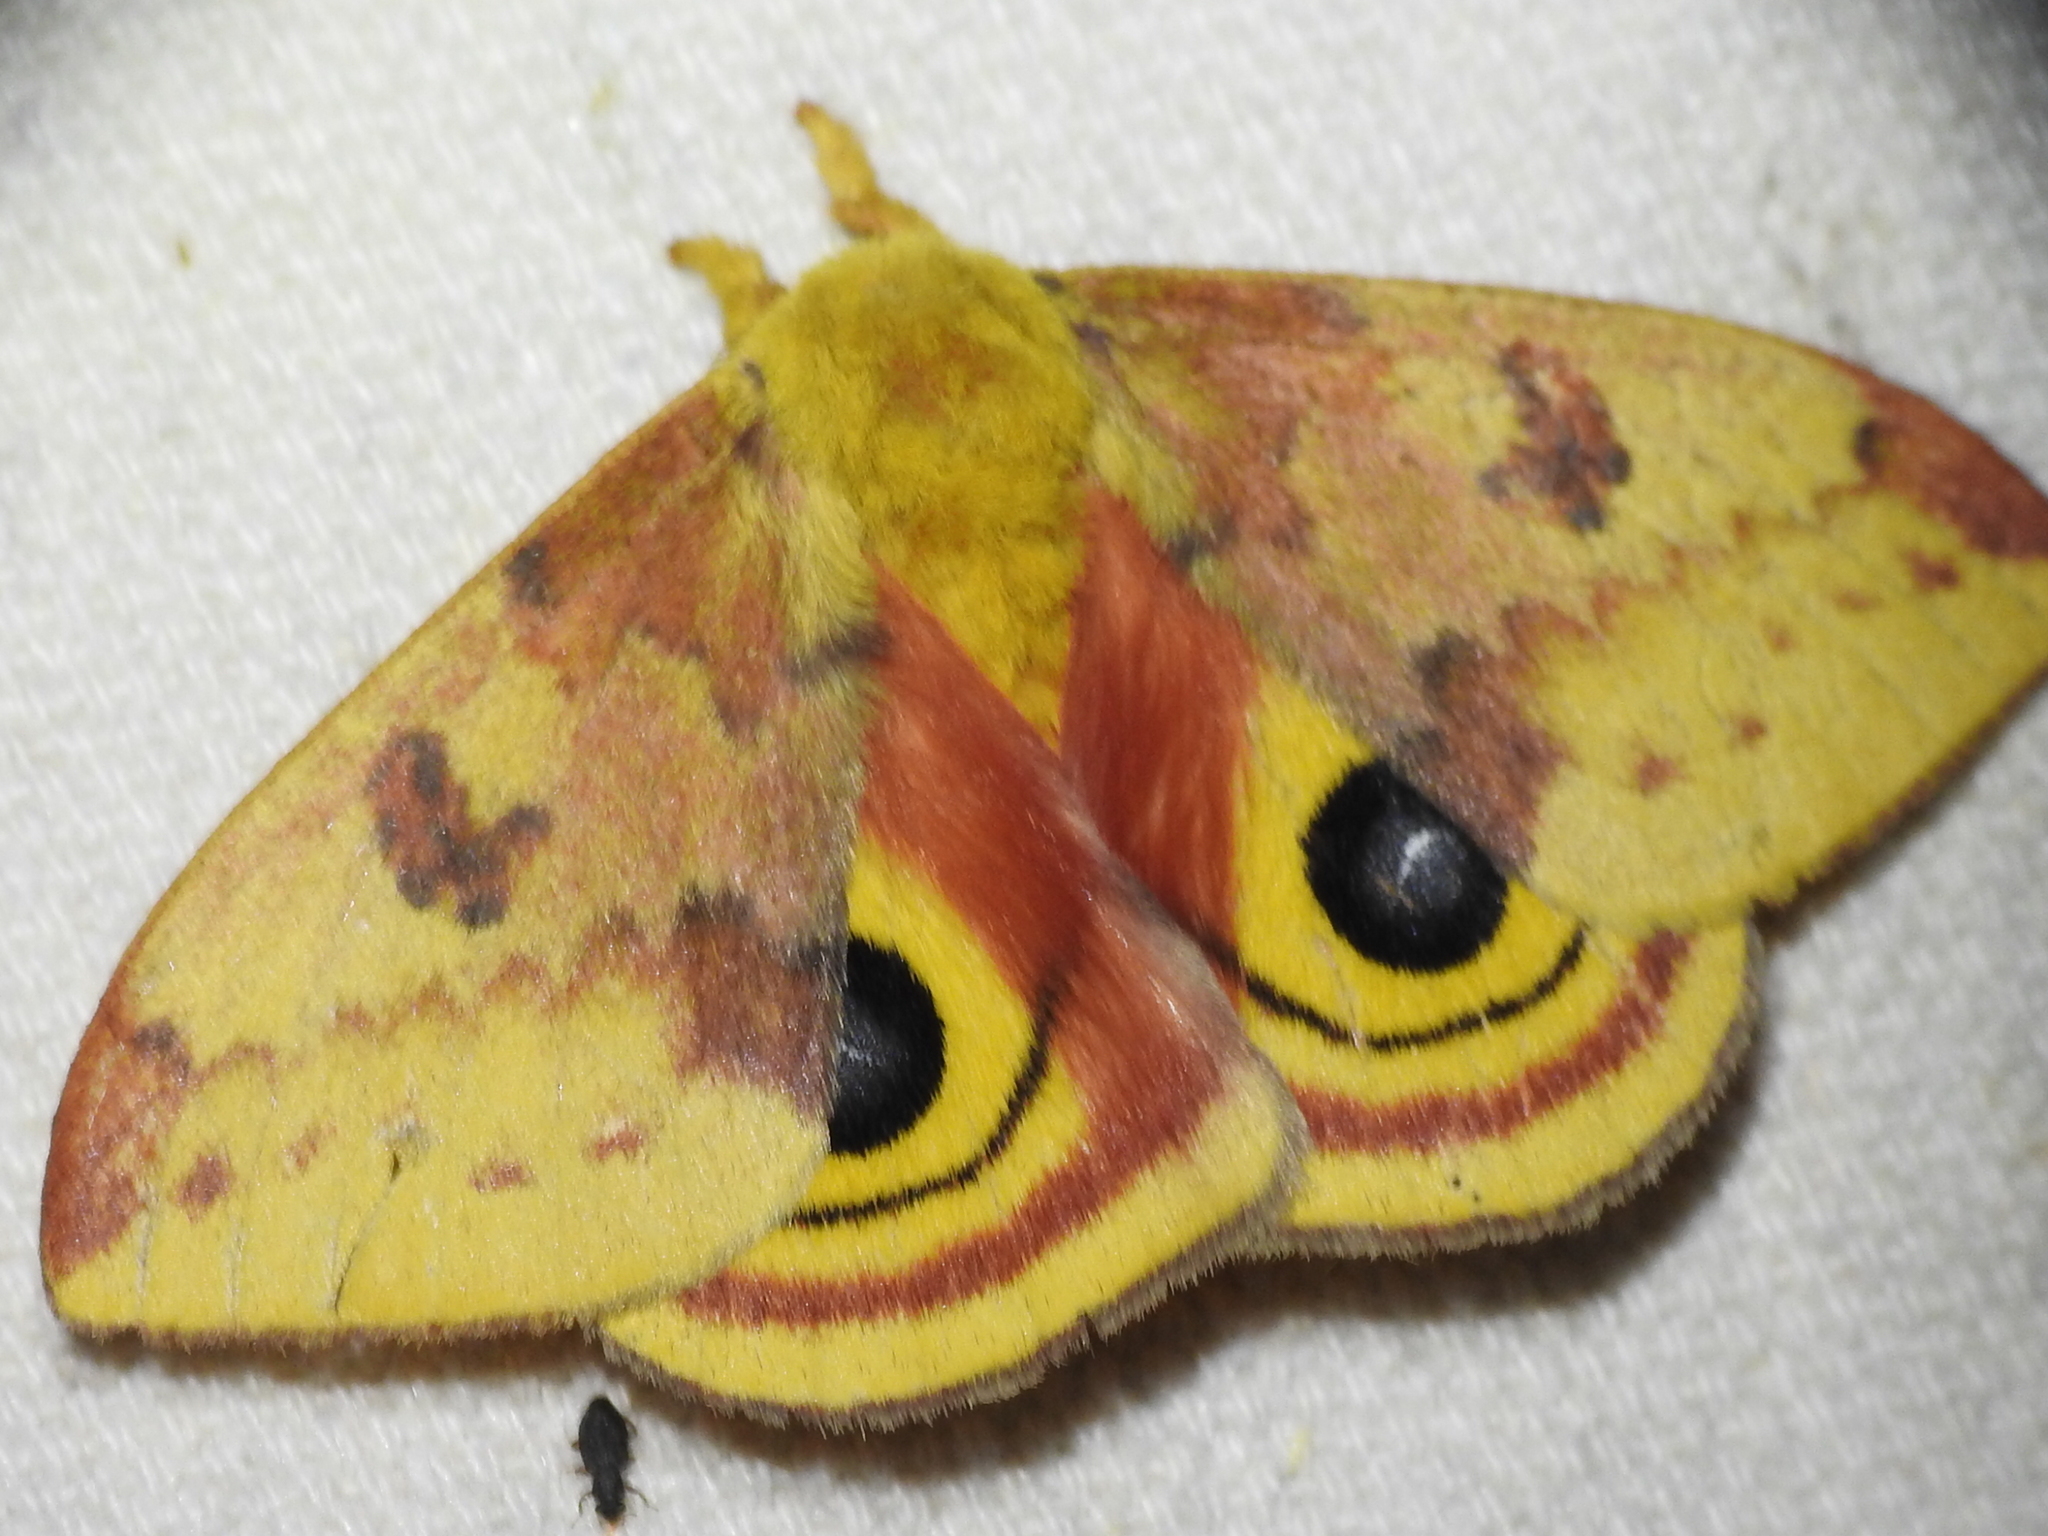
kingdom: Animalia
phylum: Arthropoda
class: Insecta
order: Lepidoptera
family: Saturniidae
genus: Automeris
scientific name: Automeris io
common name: Io moth
